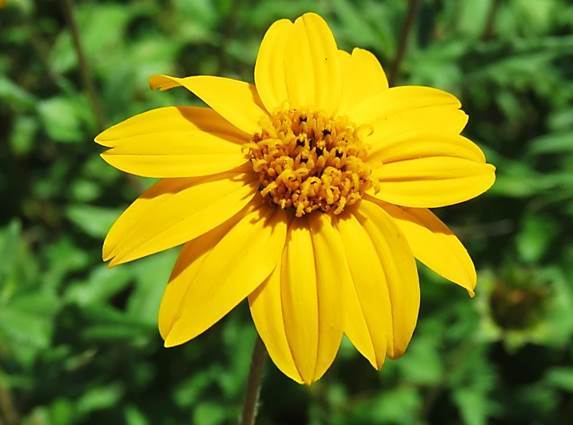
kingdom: Plantae
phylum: Tracheophyta
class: Magnoliopsida
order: Asterales
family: Asteraceae
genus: Wedelia
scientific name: Wedelia acapulcensis
